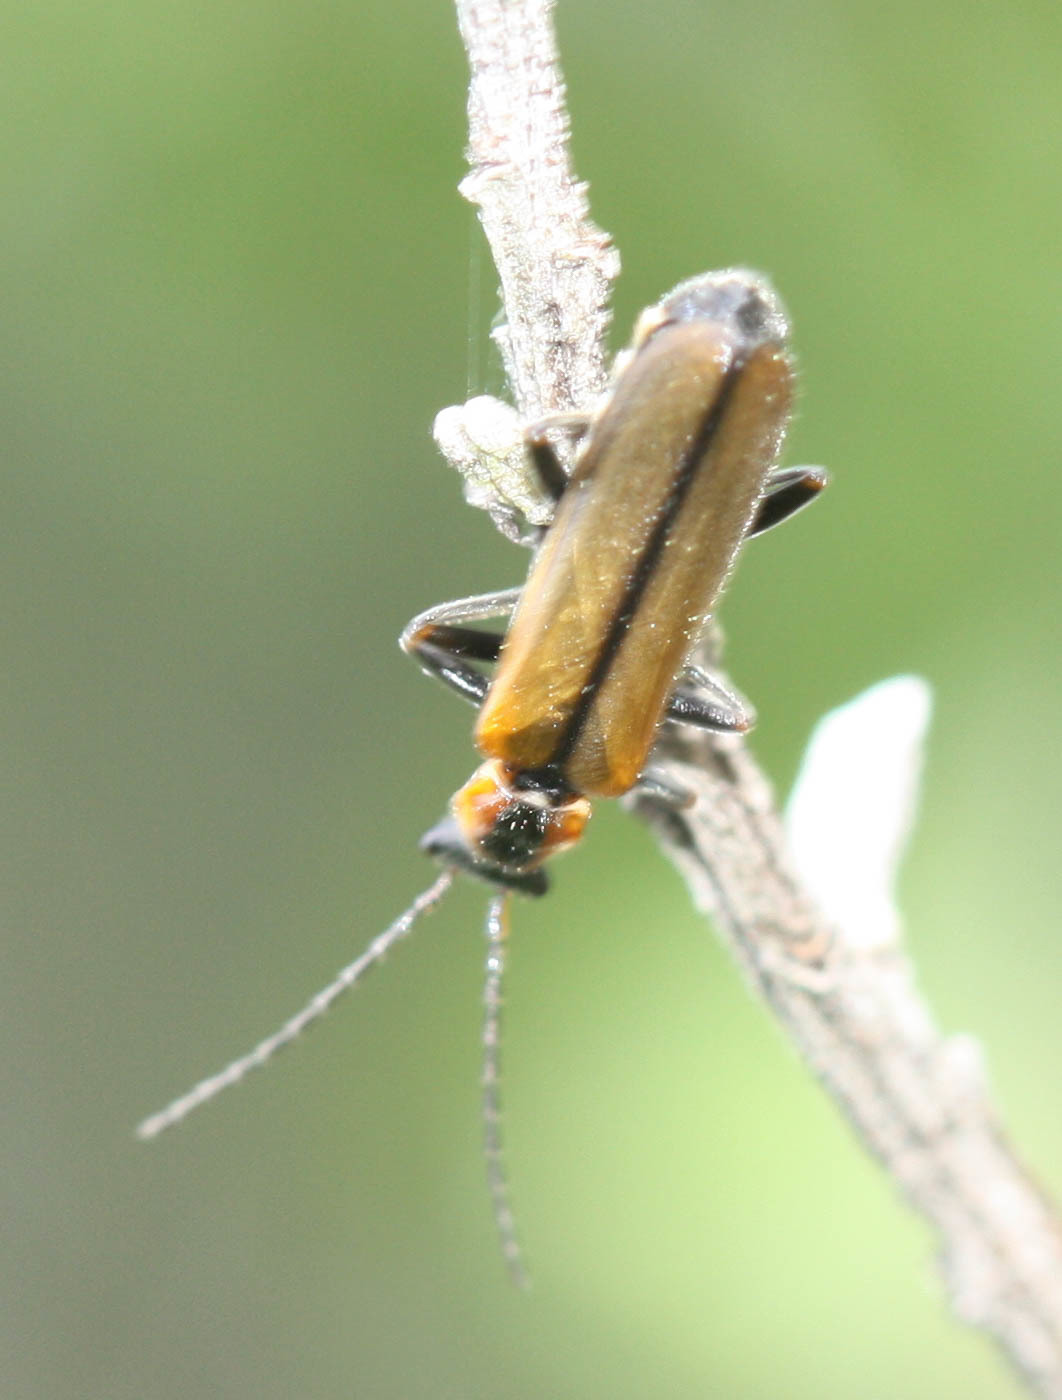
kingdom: Animalia
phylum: Arthropoda
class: Insecta
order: Coleoptera
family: Cantharidae
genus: Dichelotarsus
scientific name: Dichelotarsus cavicollis
